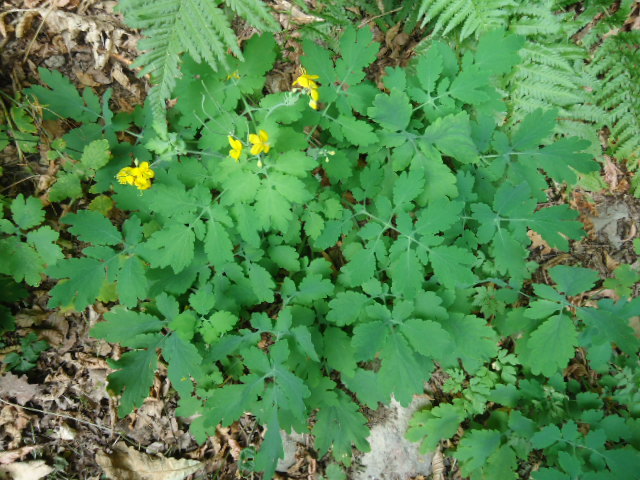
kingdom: Plantae
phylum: Tracheophyta
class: Magnoliopsida
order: Ranunculales
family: Papaveraceae
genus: Chelidonium
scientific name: Chelidonium majus
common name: Greater celandine
